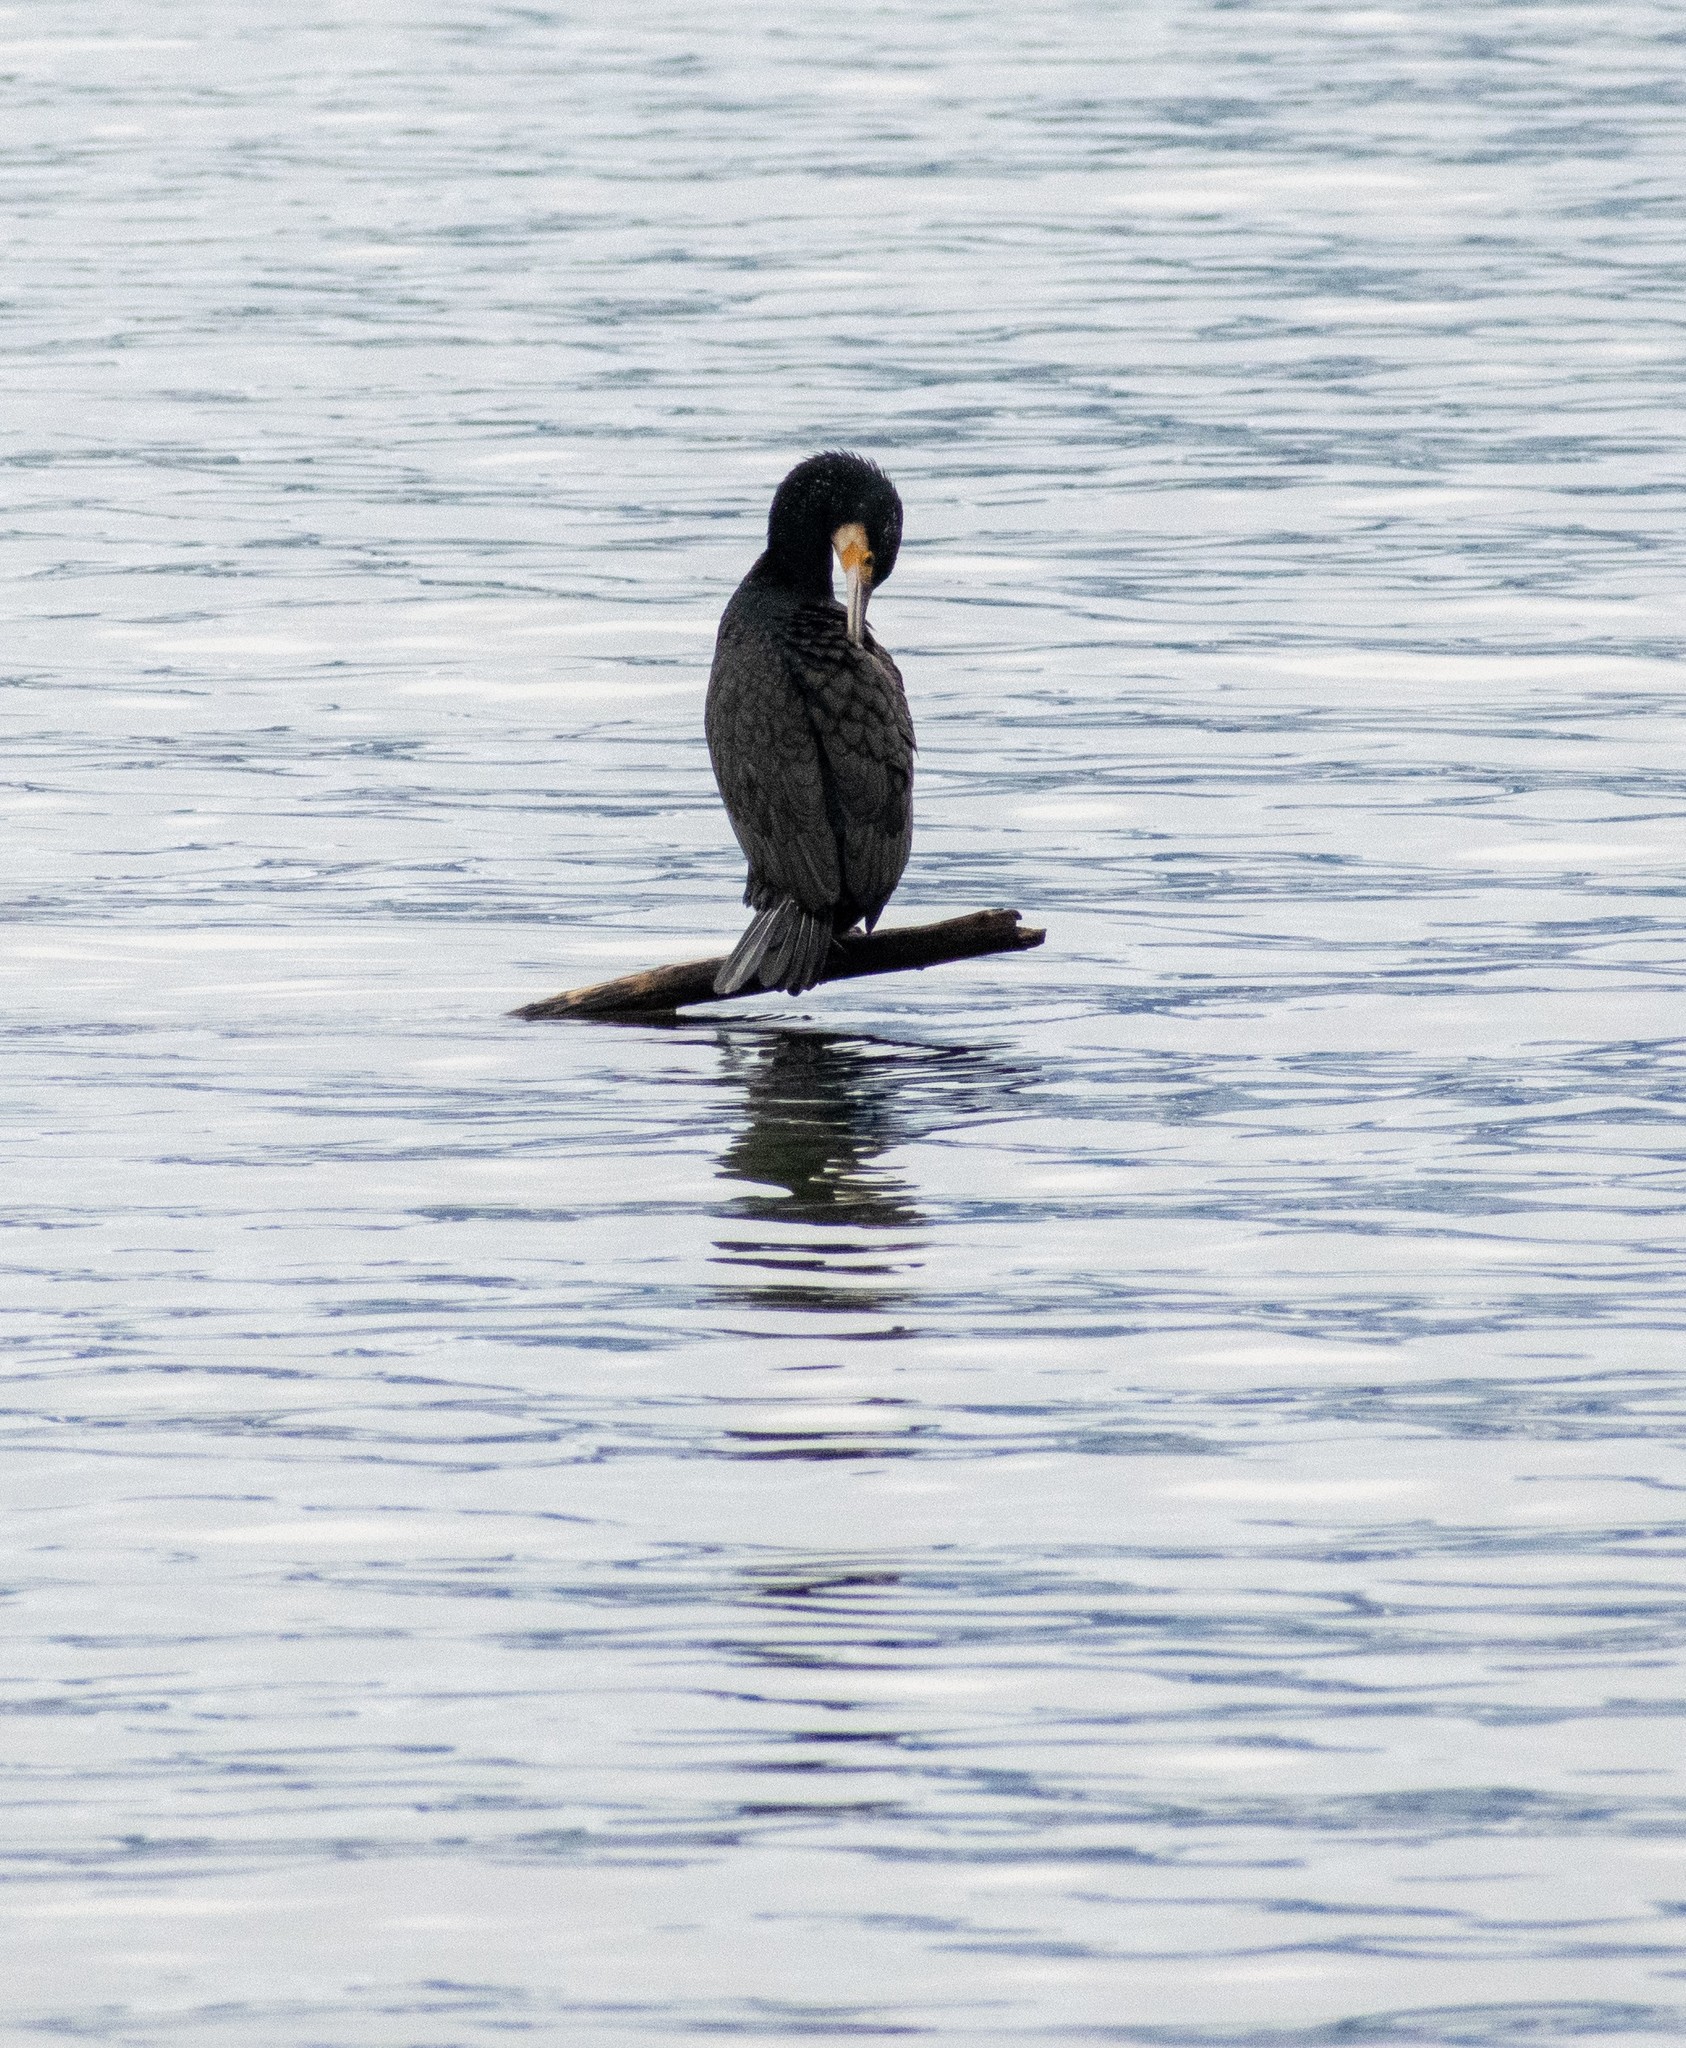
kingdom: Animalia
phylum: Chordata
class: Aves
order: Suliformes
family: Phalacrocoracidae
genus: Phalacrocorax
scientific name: Phalacrocorax carbo
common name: Great cormorant
